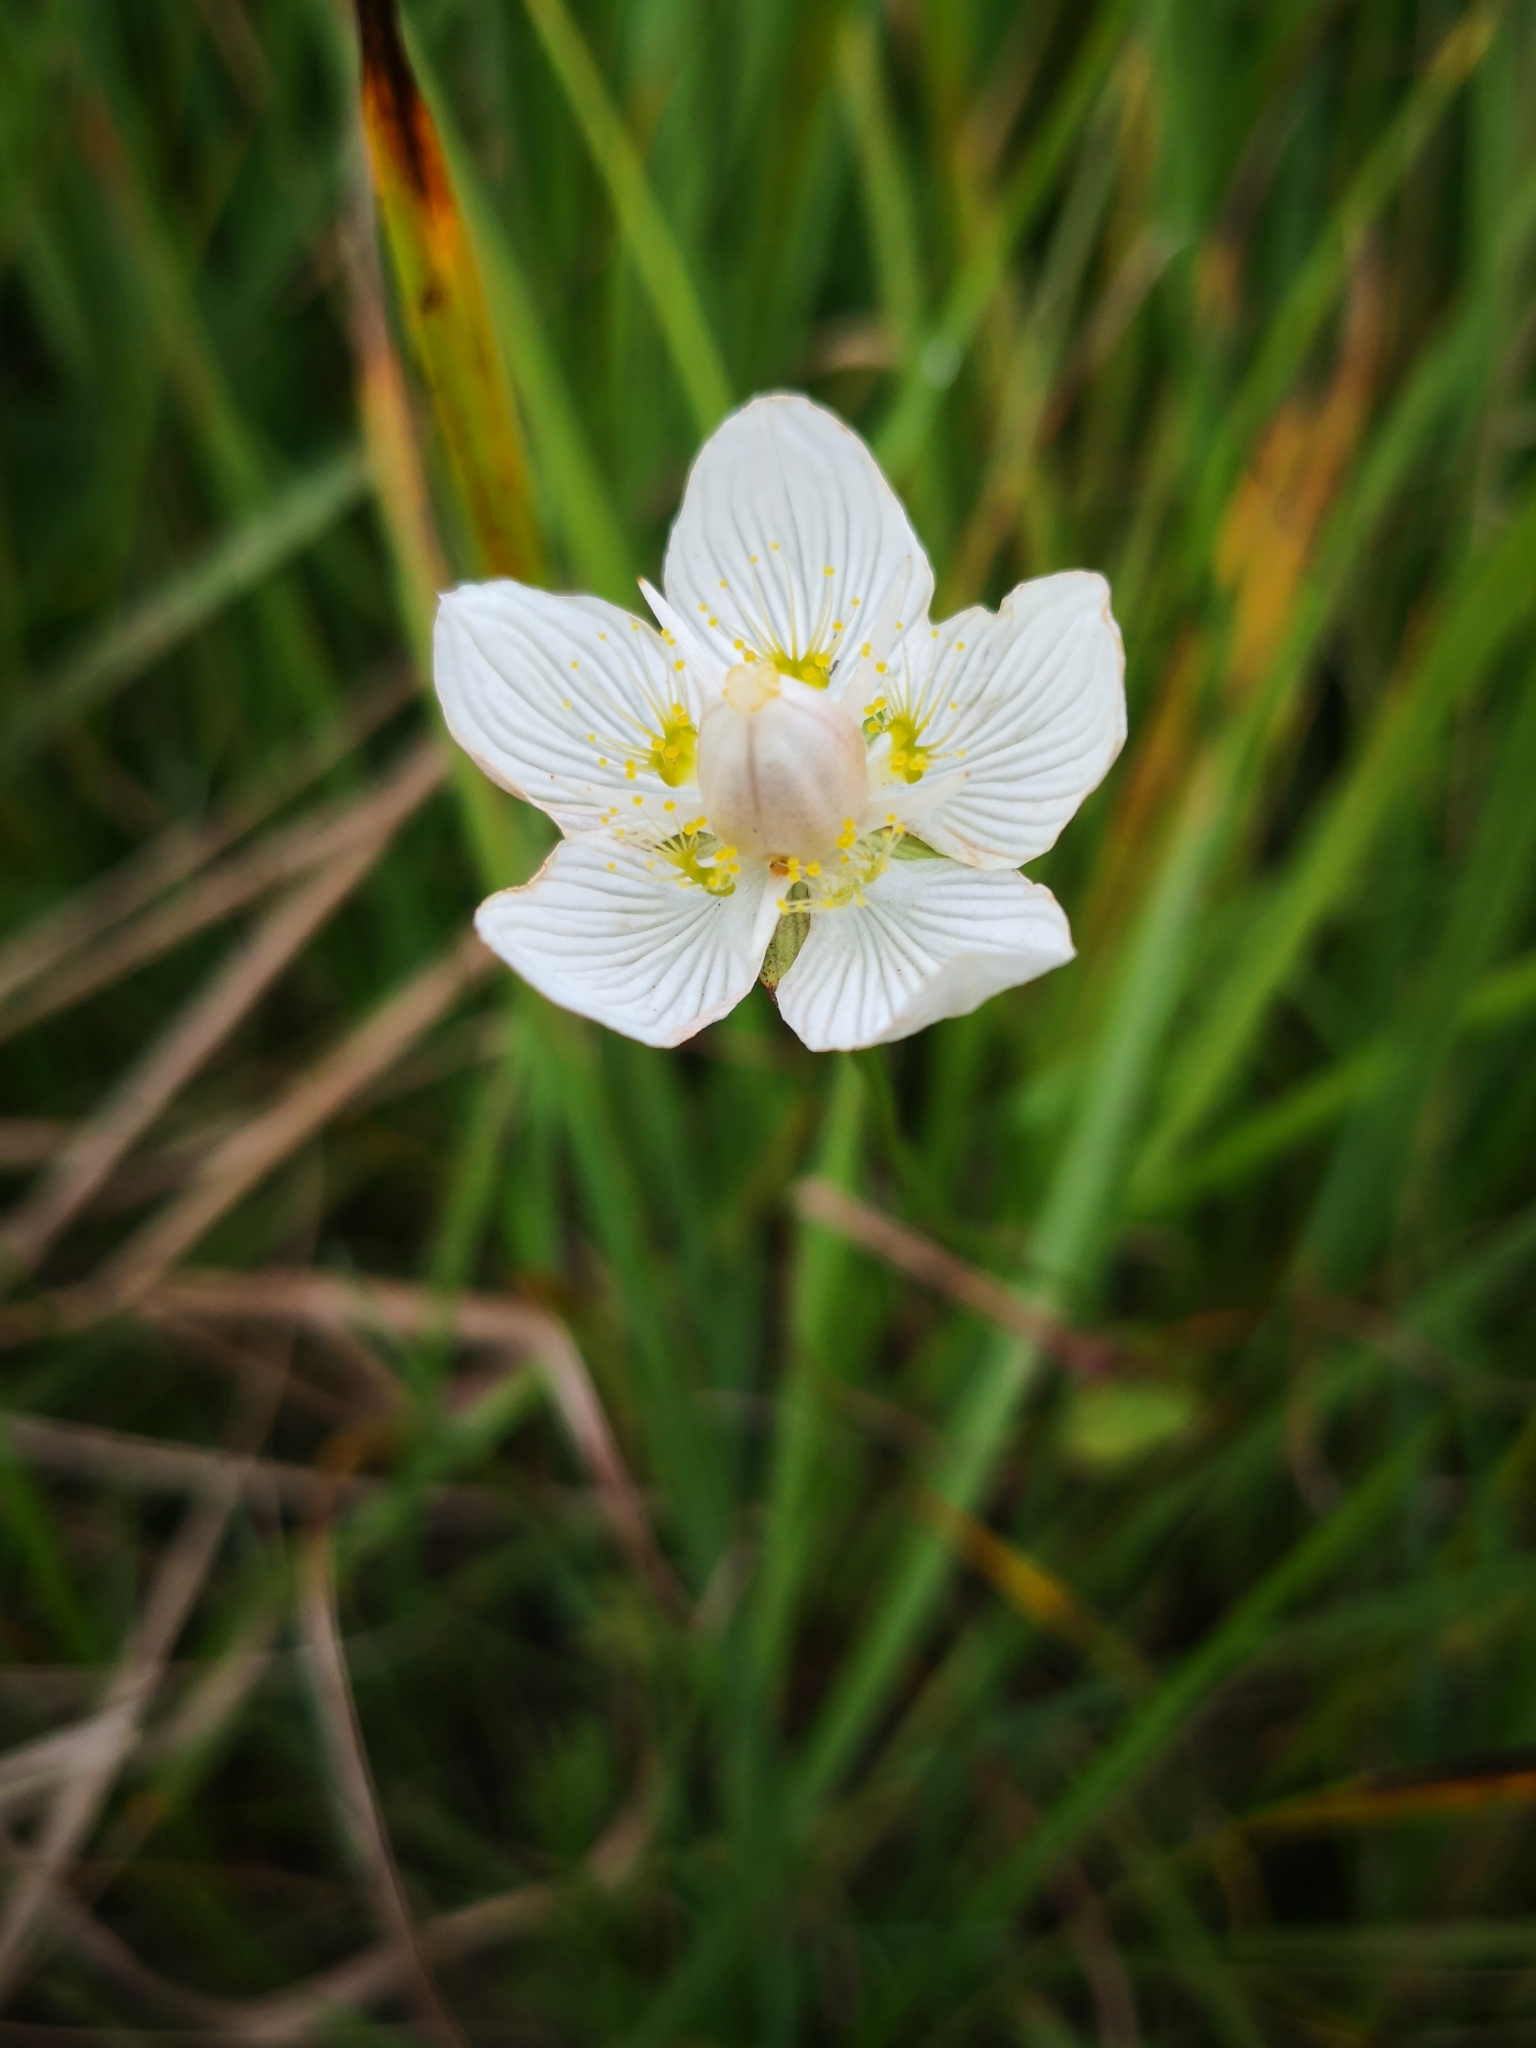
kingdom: Plantae
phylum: Tracheophyta
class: Magnoliopsida
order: Celastrales
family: Parnassiaceae
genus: Parnassia
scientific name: Parnassia palustris
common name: Grass-of-parnassus
